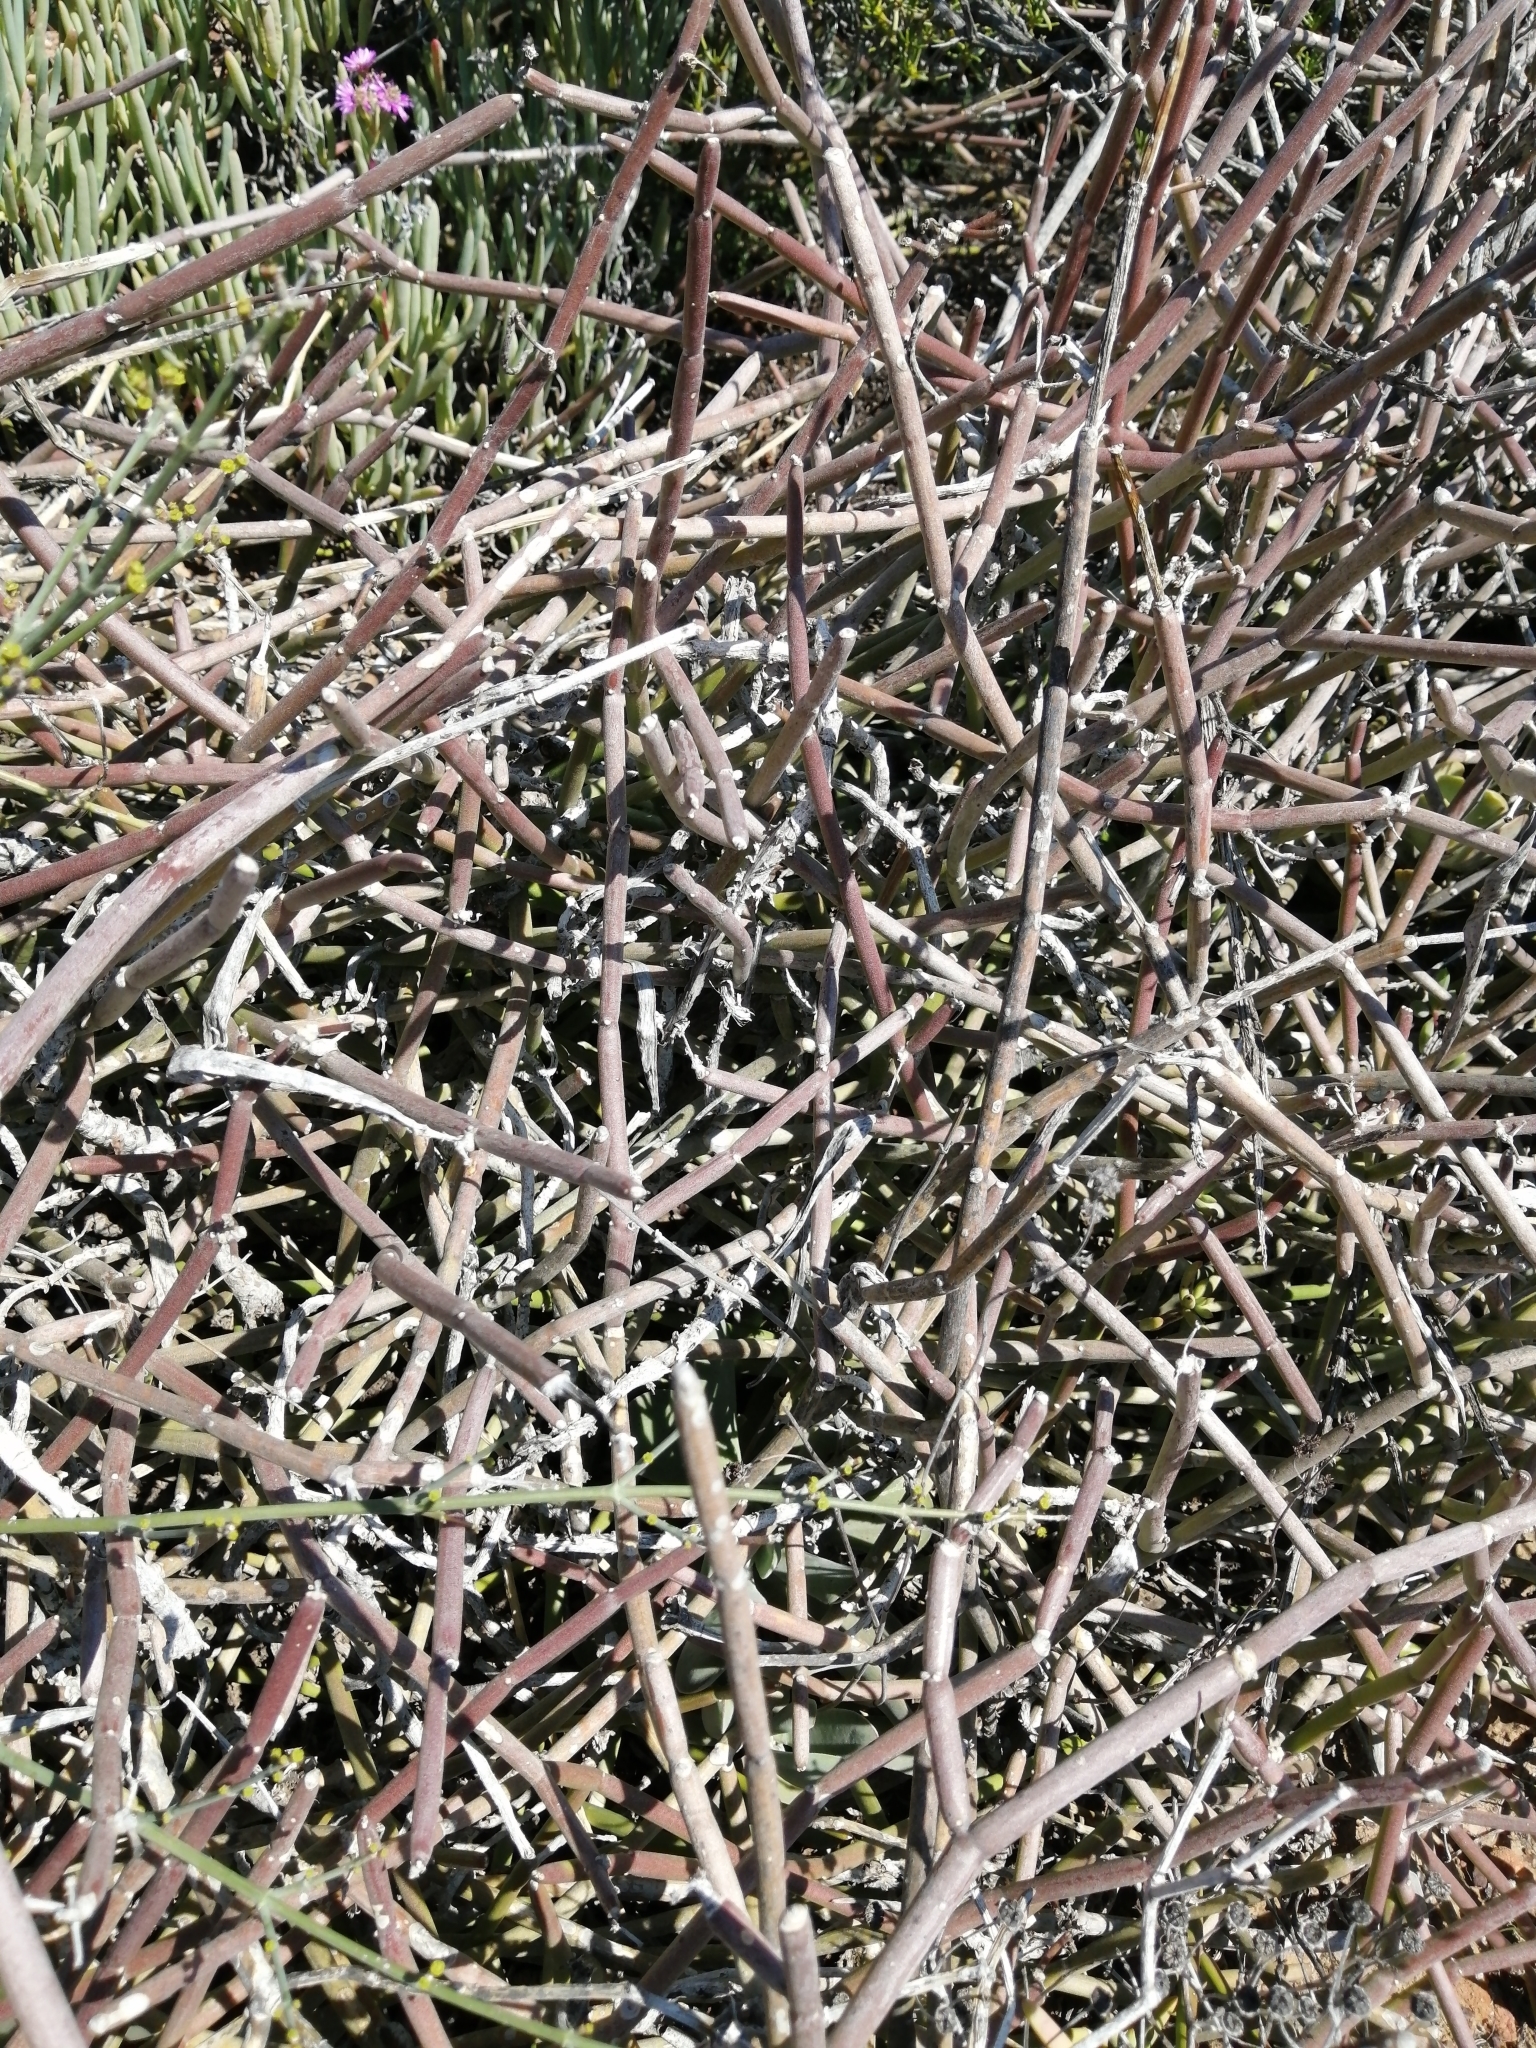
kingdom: Plantae
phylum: Tracheophyta
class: Magnoliopsida
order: Gentianales
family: Apocynaceae
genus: Cynanchum
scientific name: Cynanchum viminale
